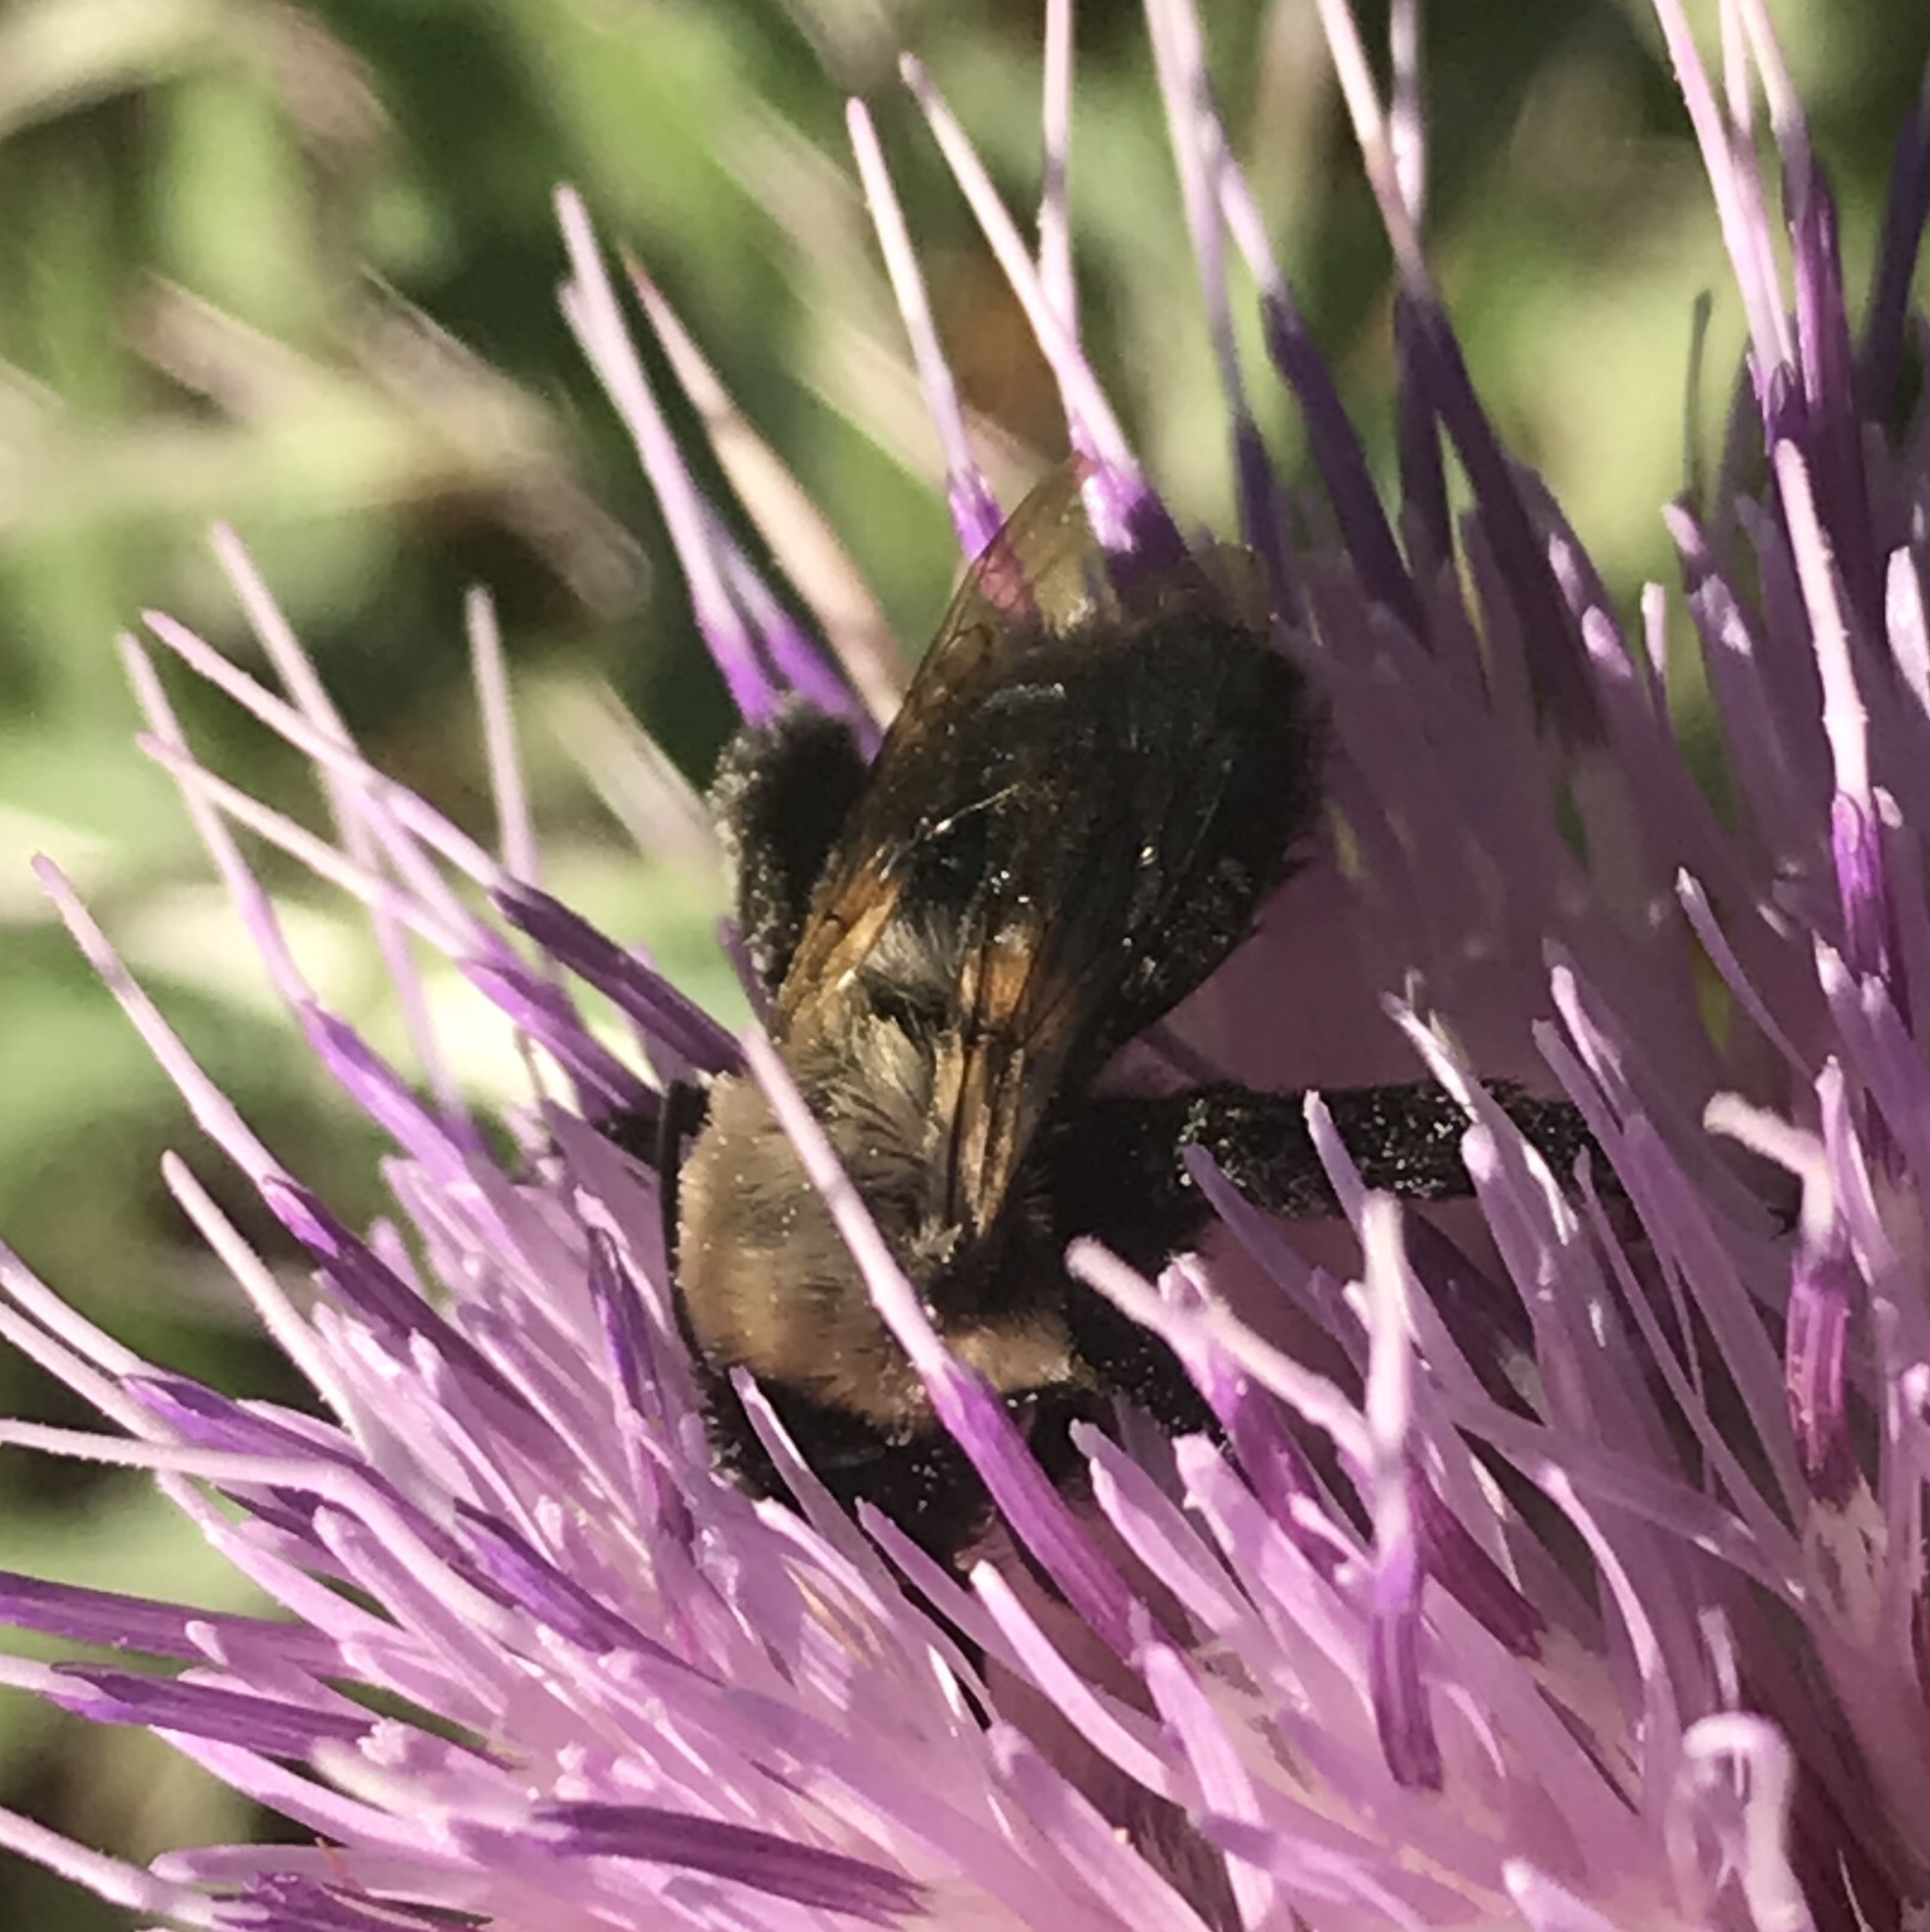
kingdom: Animalia
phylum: Arthropoda
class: Insecta
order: Hymenoptera
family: Apidae
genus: Habropoda
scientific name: Habropoda laboriosa
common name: Southeastern blueberry bee
